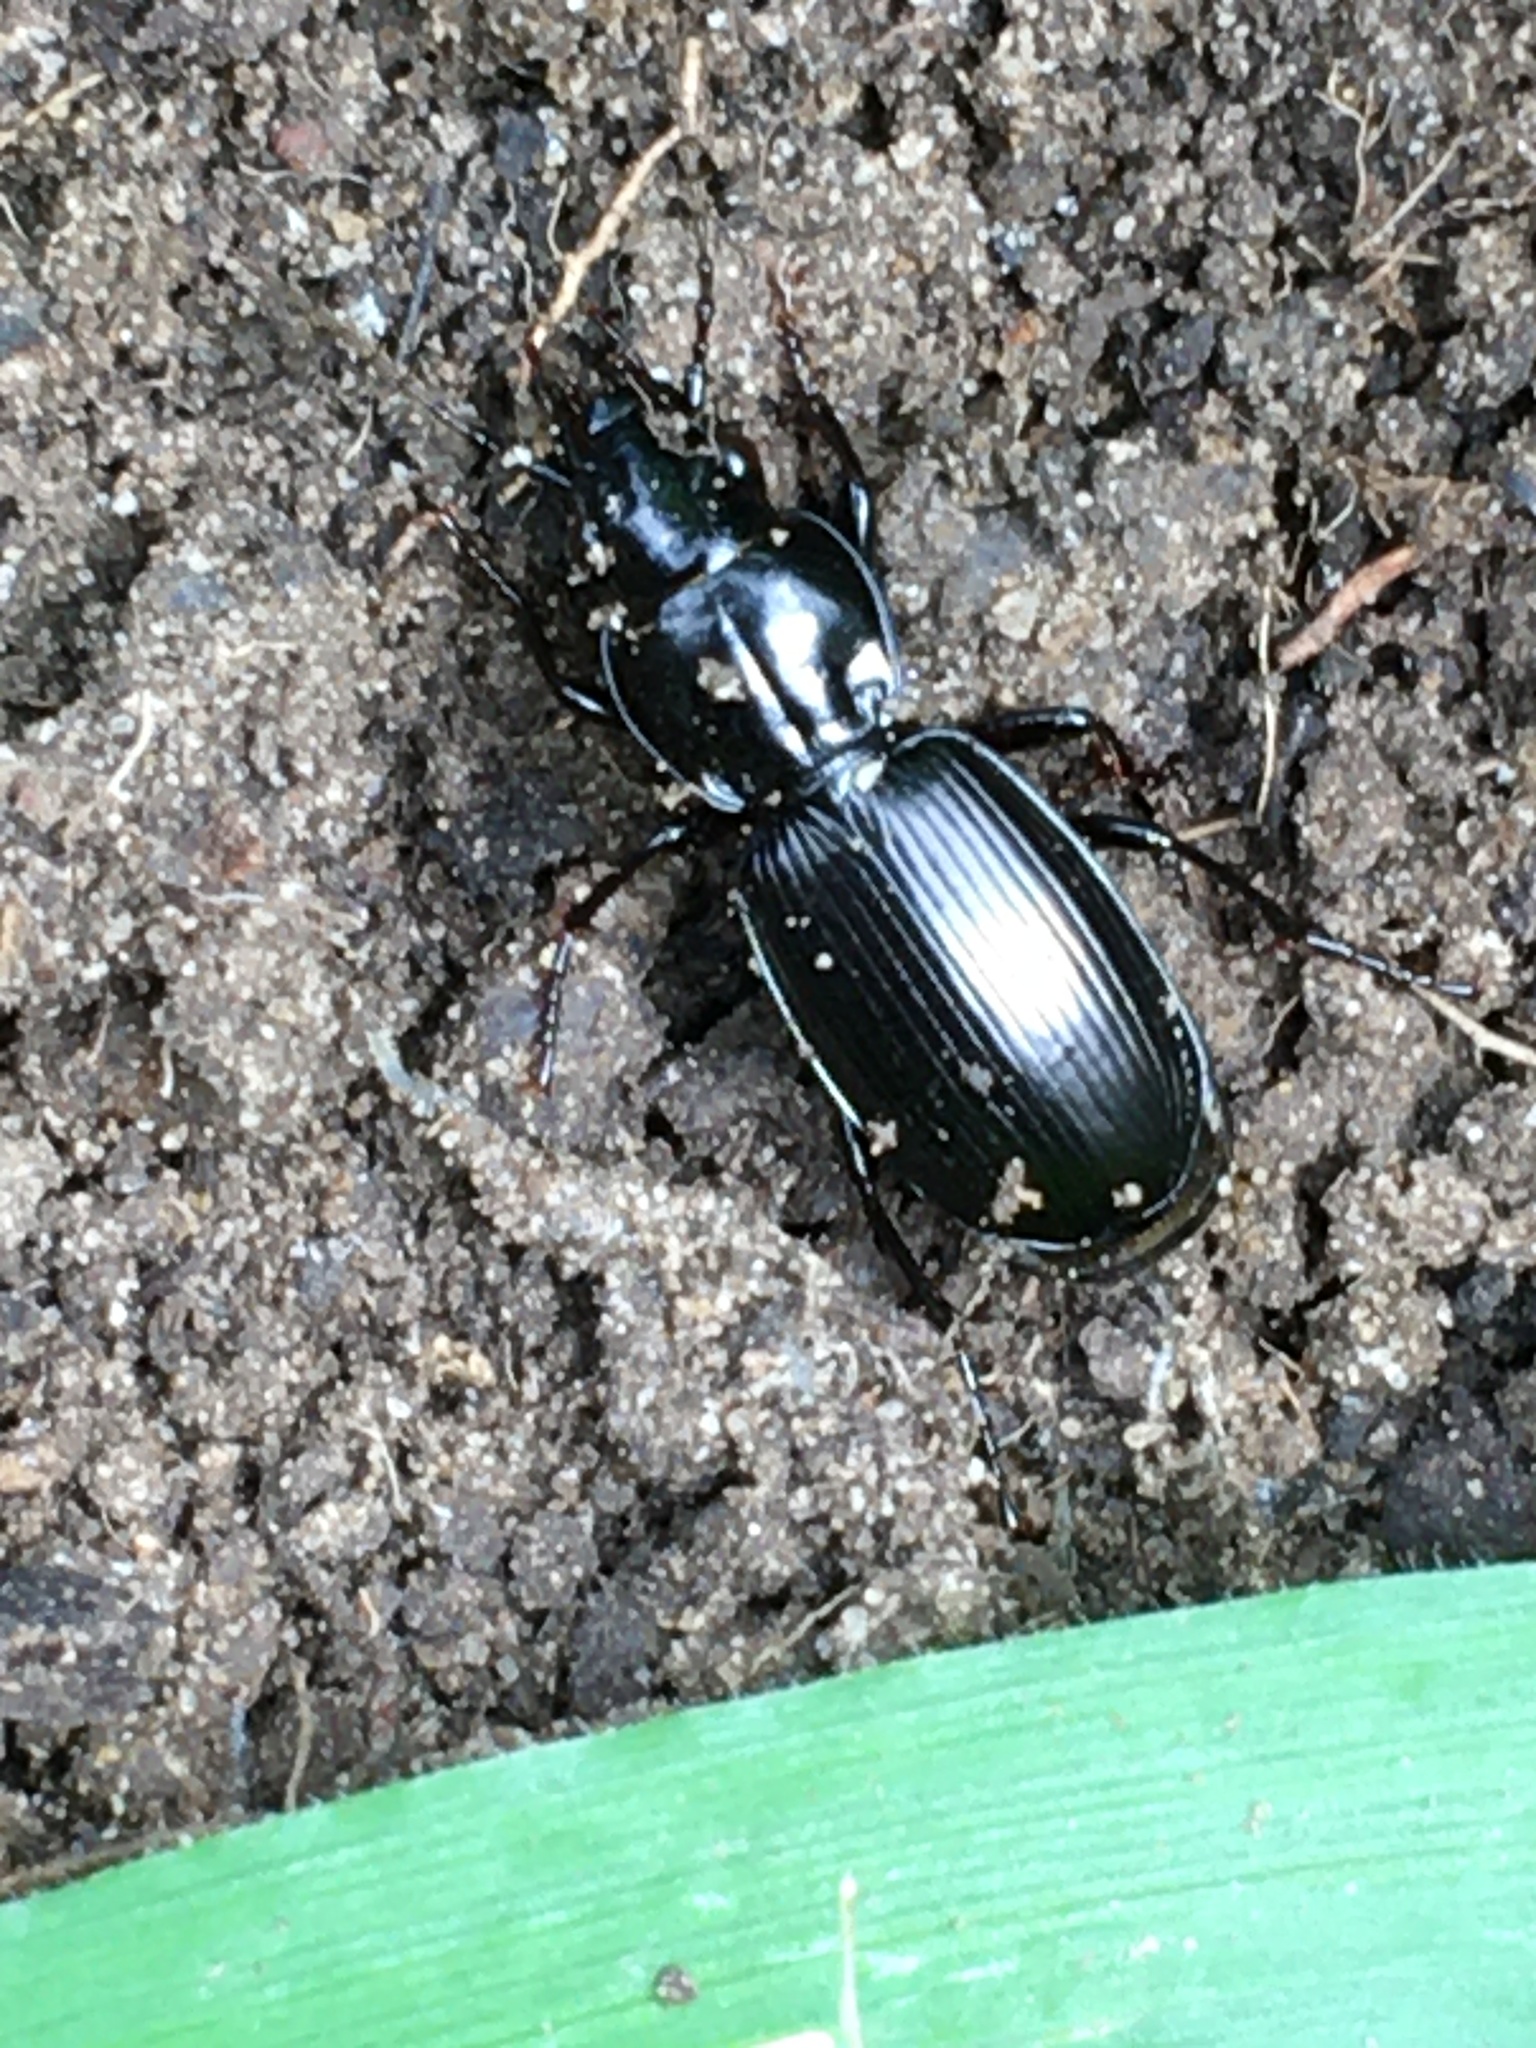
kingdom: Animalia
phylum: Arthropoda
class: Insecta
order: Coleoptera
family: Carabidae
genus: Pterostichus
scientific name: Pterostichus madidus
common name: Black clock
